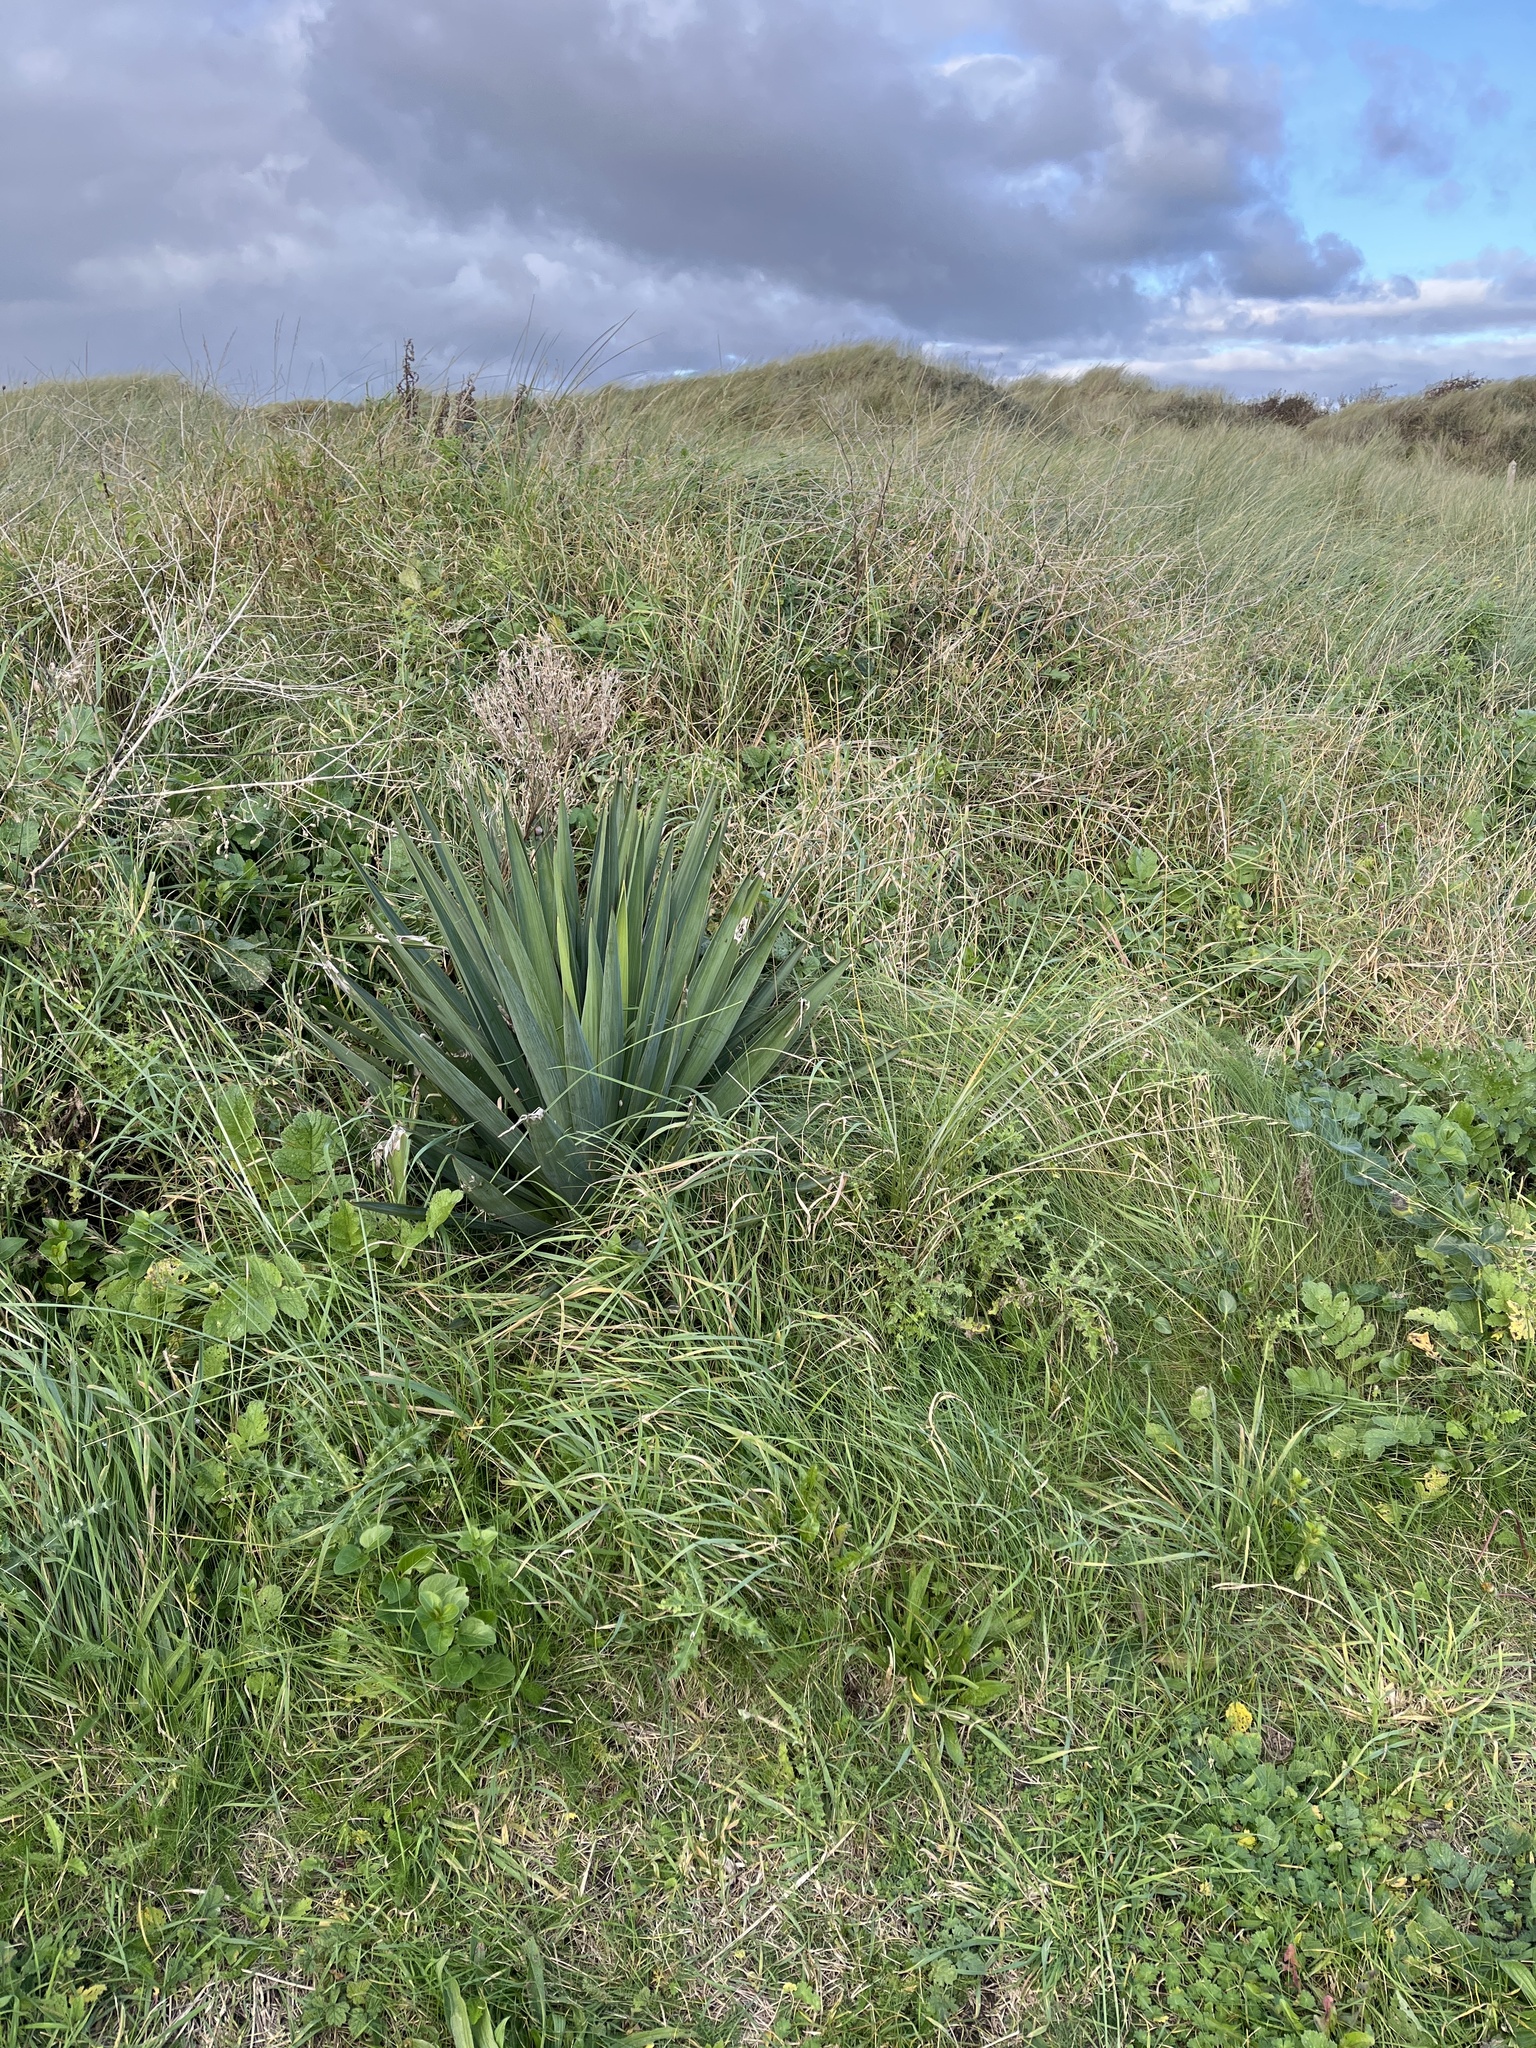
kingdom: Plantae
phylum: Tracheophyta
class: Liliopsida
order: Asparagales
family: Asparagaceae
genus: Yucca
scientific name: Yucca gloriosa
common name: Spanish-dagger
